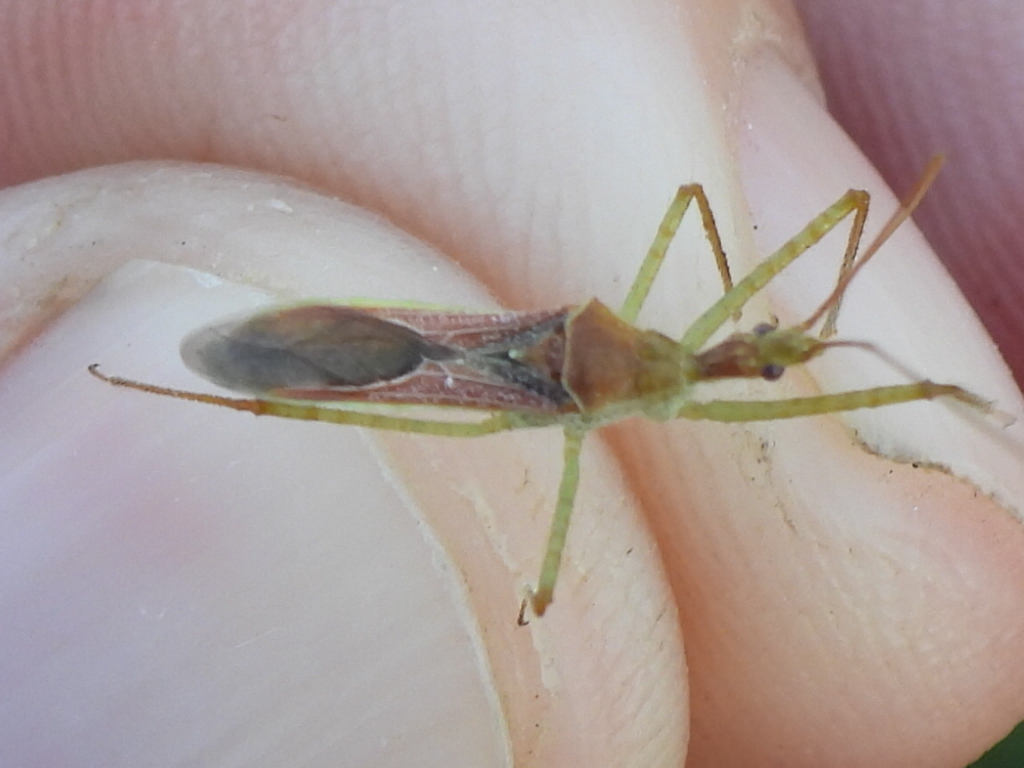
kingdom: Animalia
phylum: Arthropoda
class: Insecta
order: Hemiptera
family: Reduviidae
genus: Zelus
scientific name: Zelus renardii
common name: Assassin bug
